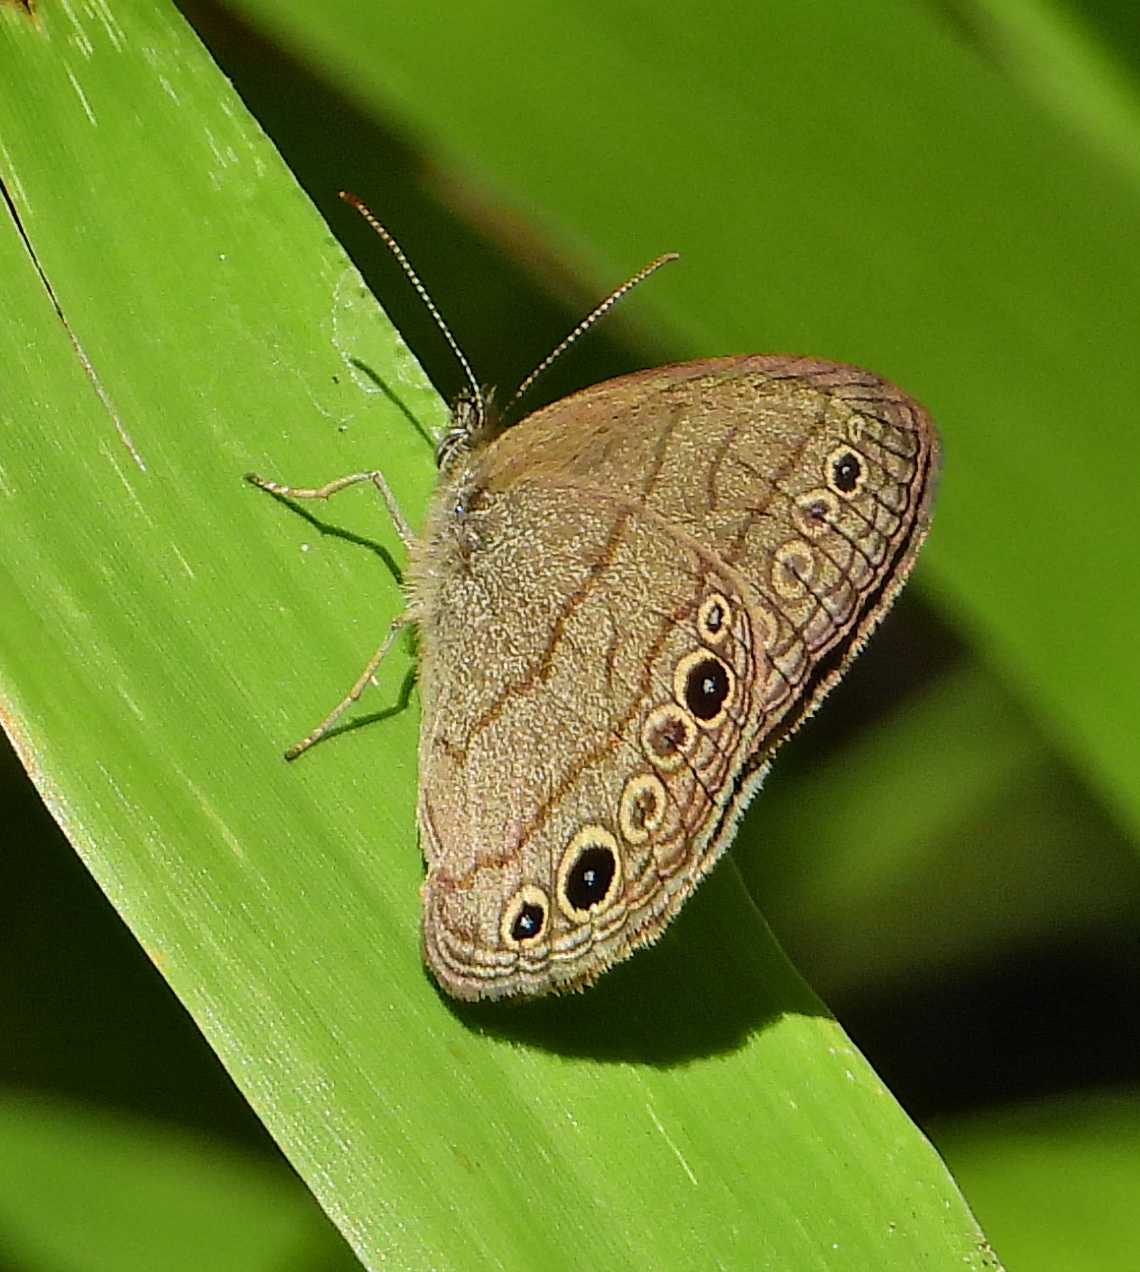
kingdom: Animalia
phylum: Arthropoda
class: Insecta
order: Lepidoptera
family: Nymphalidae
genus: Hermeuptychia
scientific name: Hermeuptychia hermes
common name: Hermes satyr
